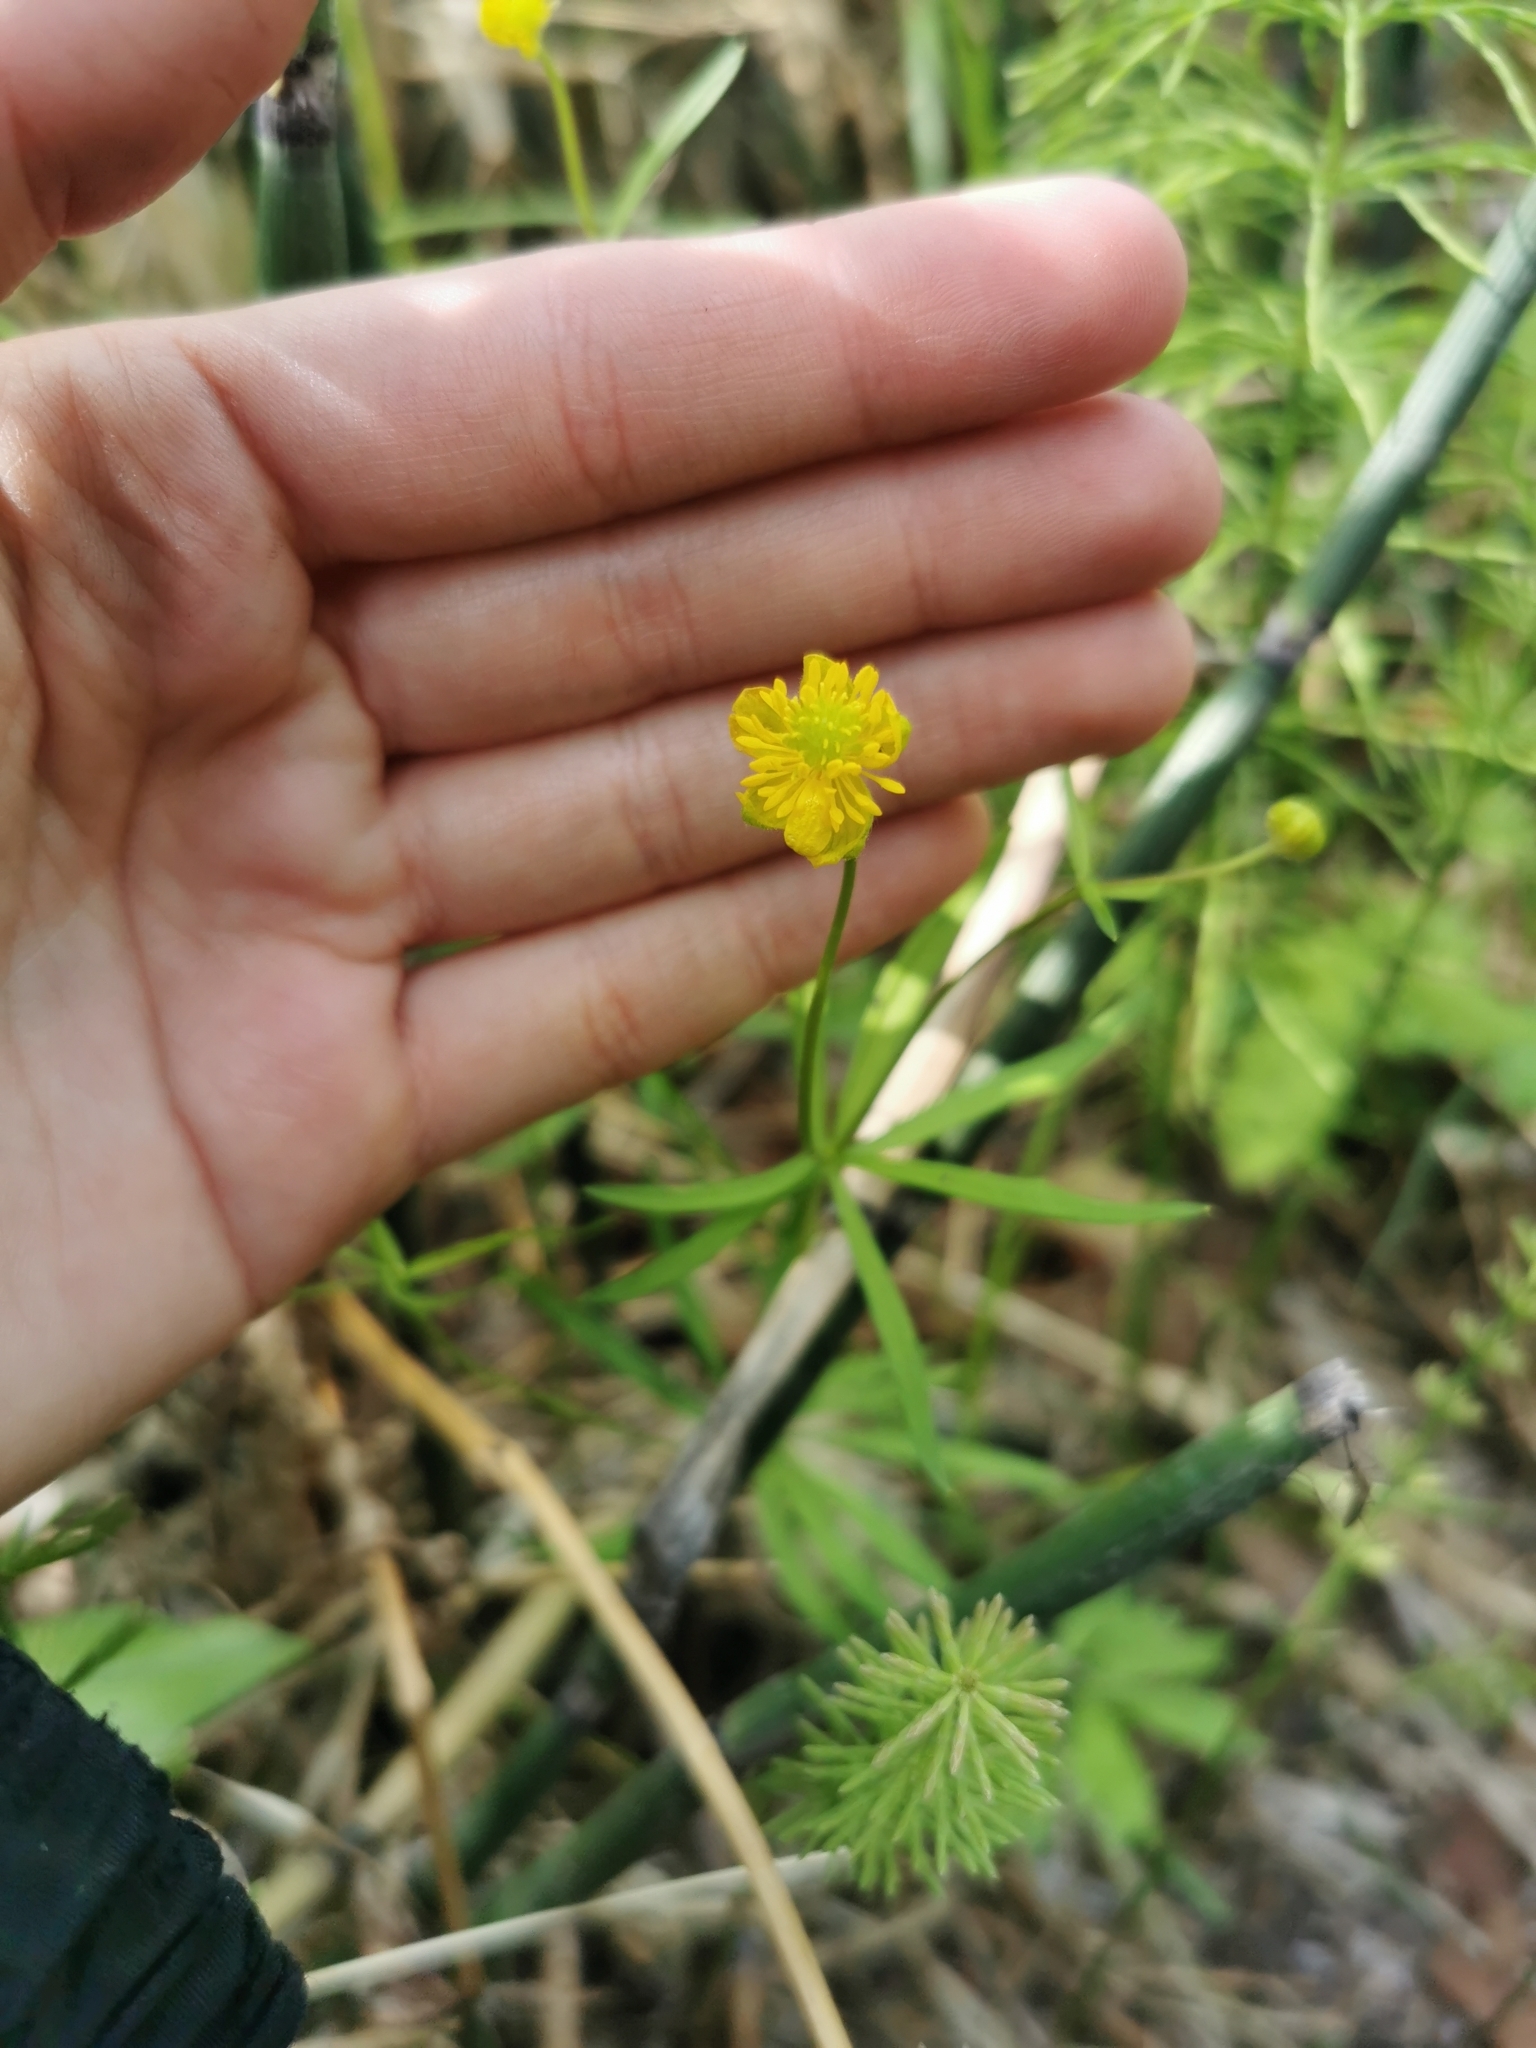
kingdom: Plantae
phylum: Tracheophyta
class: Magnoliopsida
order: Ranunculales
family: Ranunculaceae
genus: Ranunculus
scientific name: Ranunculus monophyllus
